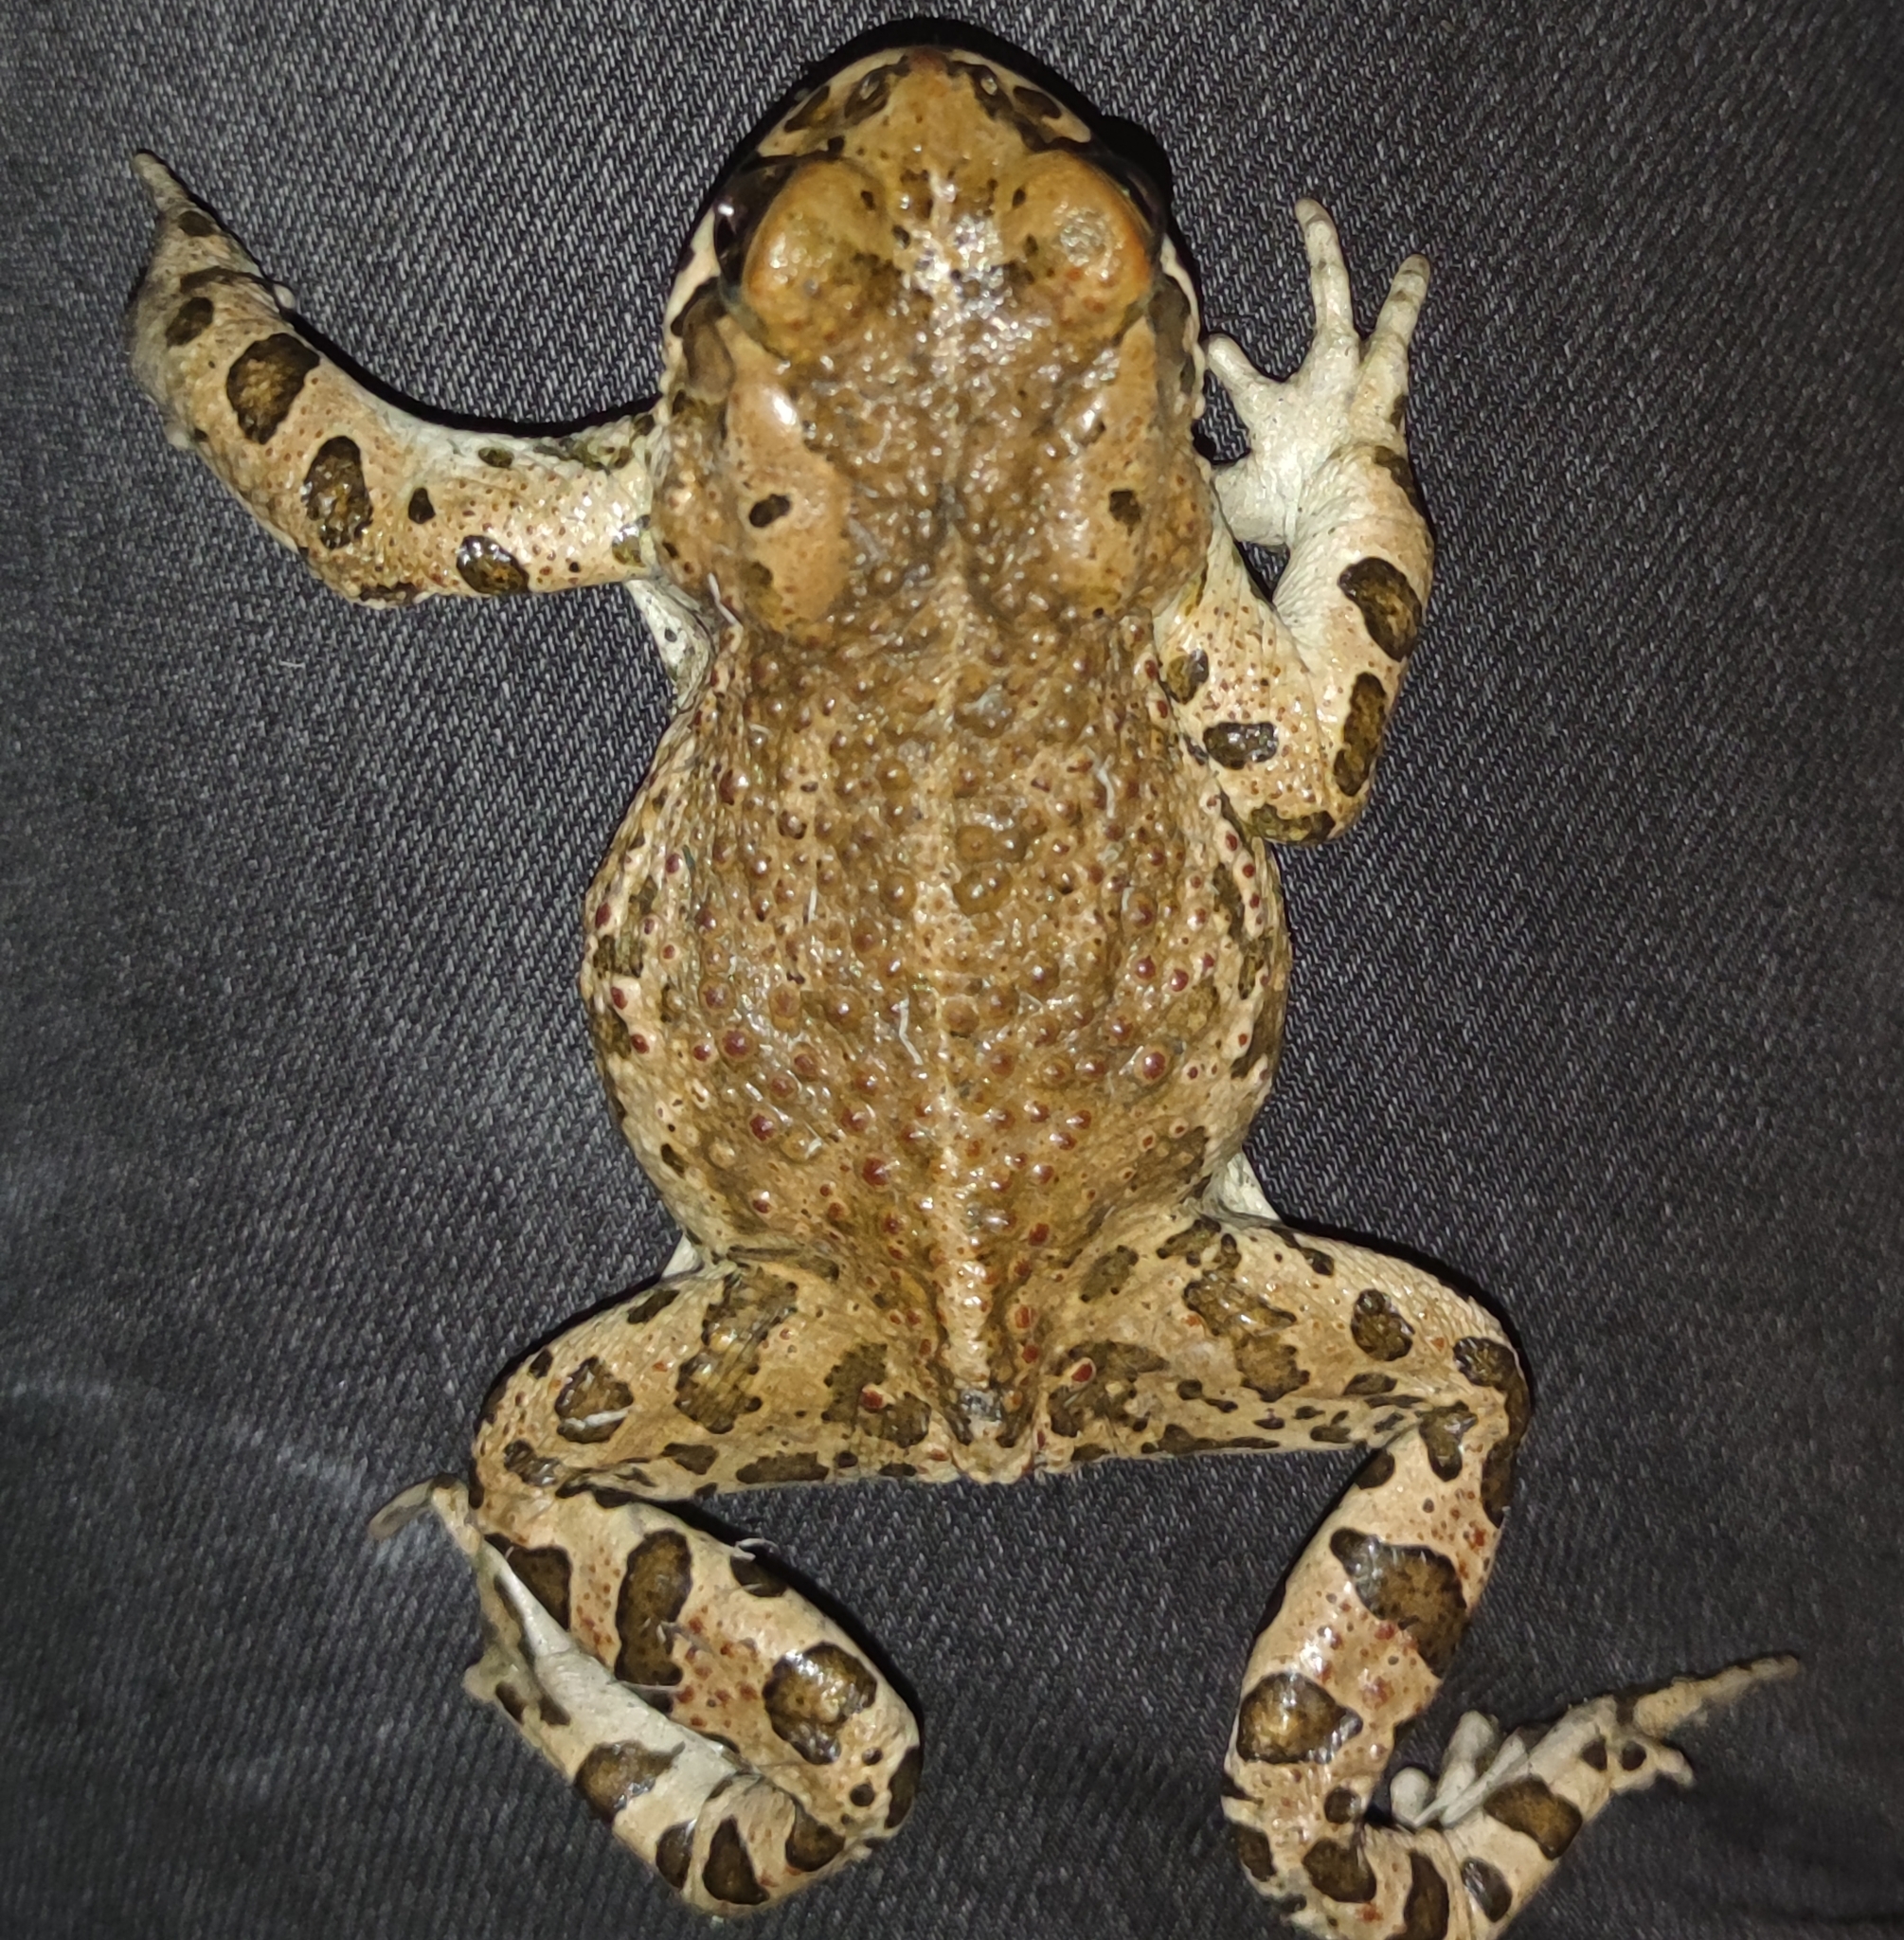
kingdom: Animalia
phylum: Chordata
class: Amphibia
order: Anura
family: Bufonidae
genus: Bufotes
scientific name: Bufotes viridis
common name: European green toad
